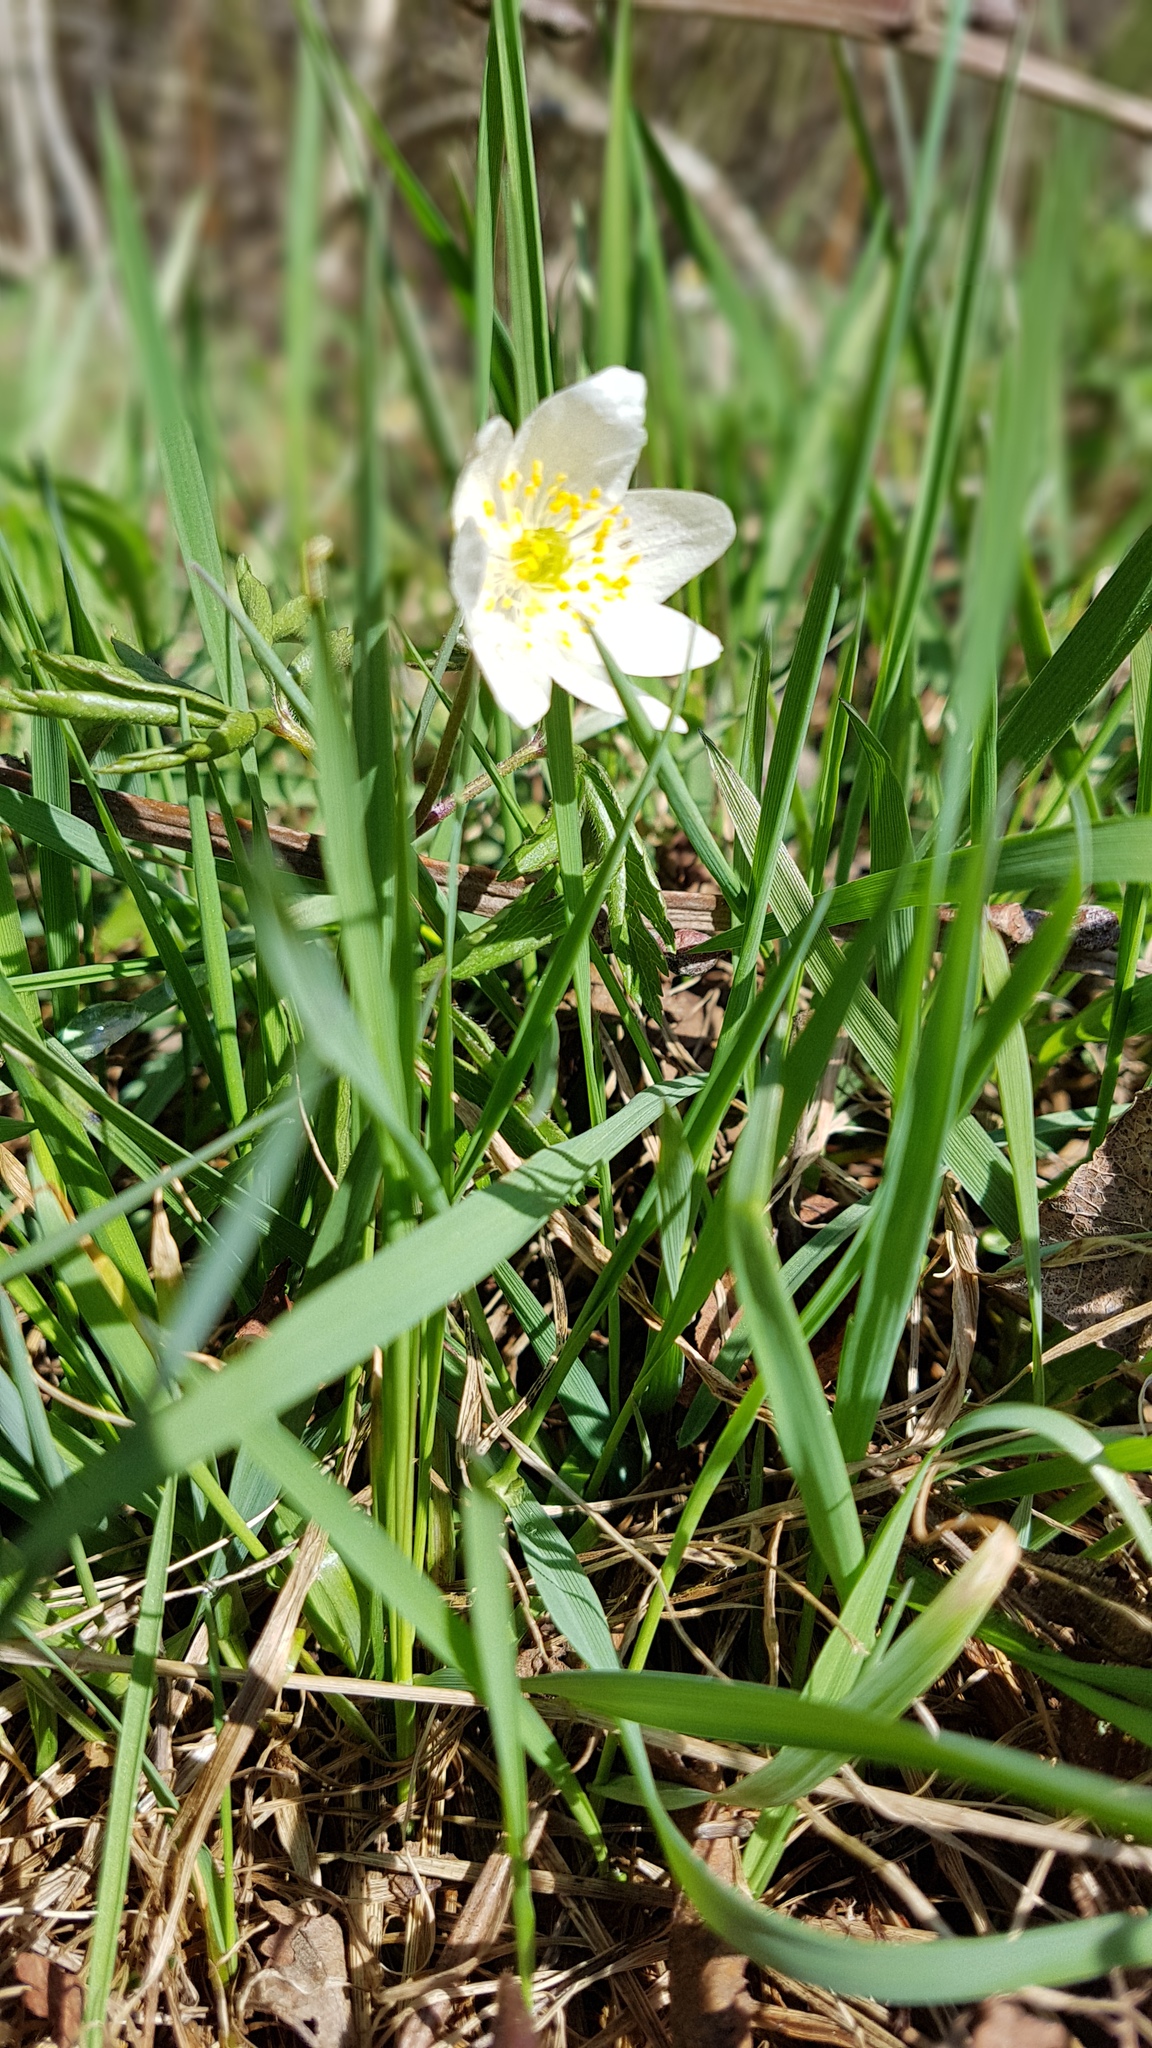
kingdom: Plantae
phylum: Tracheophyta
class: Magnoliopsida
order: Ranunculales
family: Ranunculaceae
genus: Anemone
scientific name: Anemone nemorosa
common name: Wood anemone
